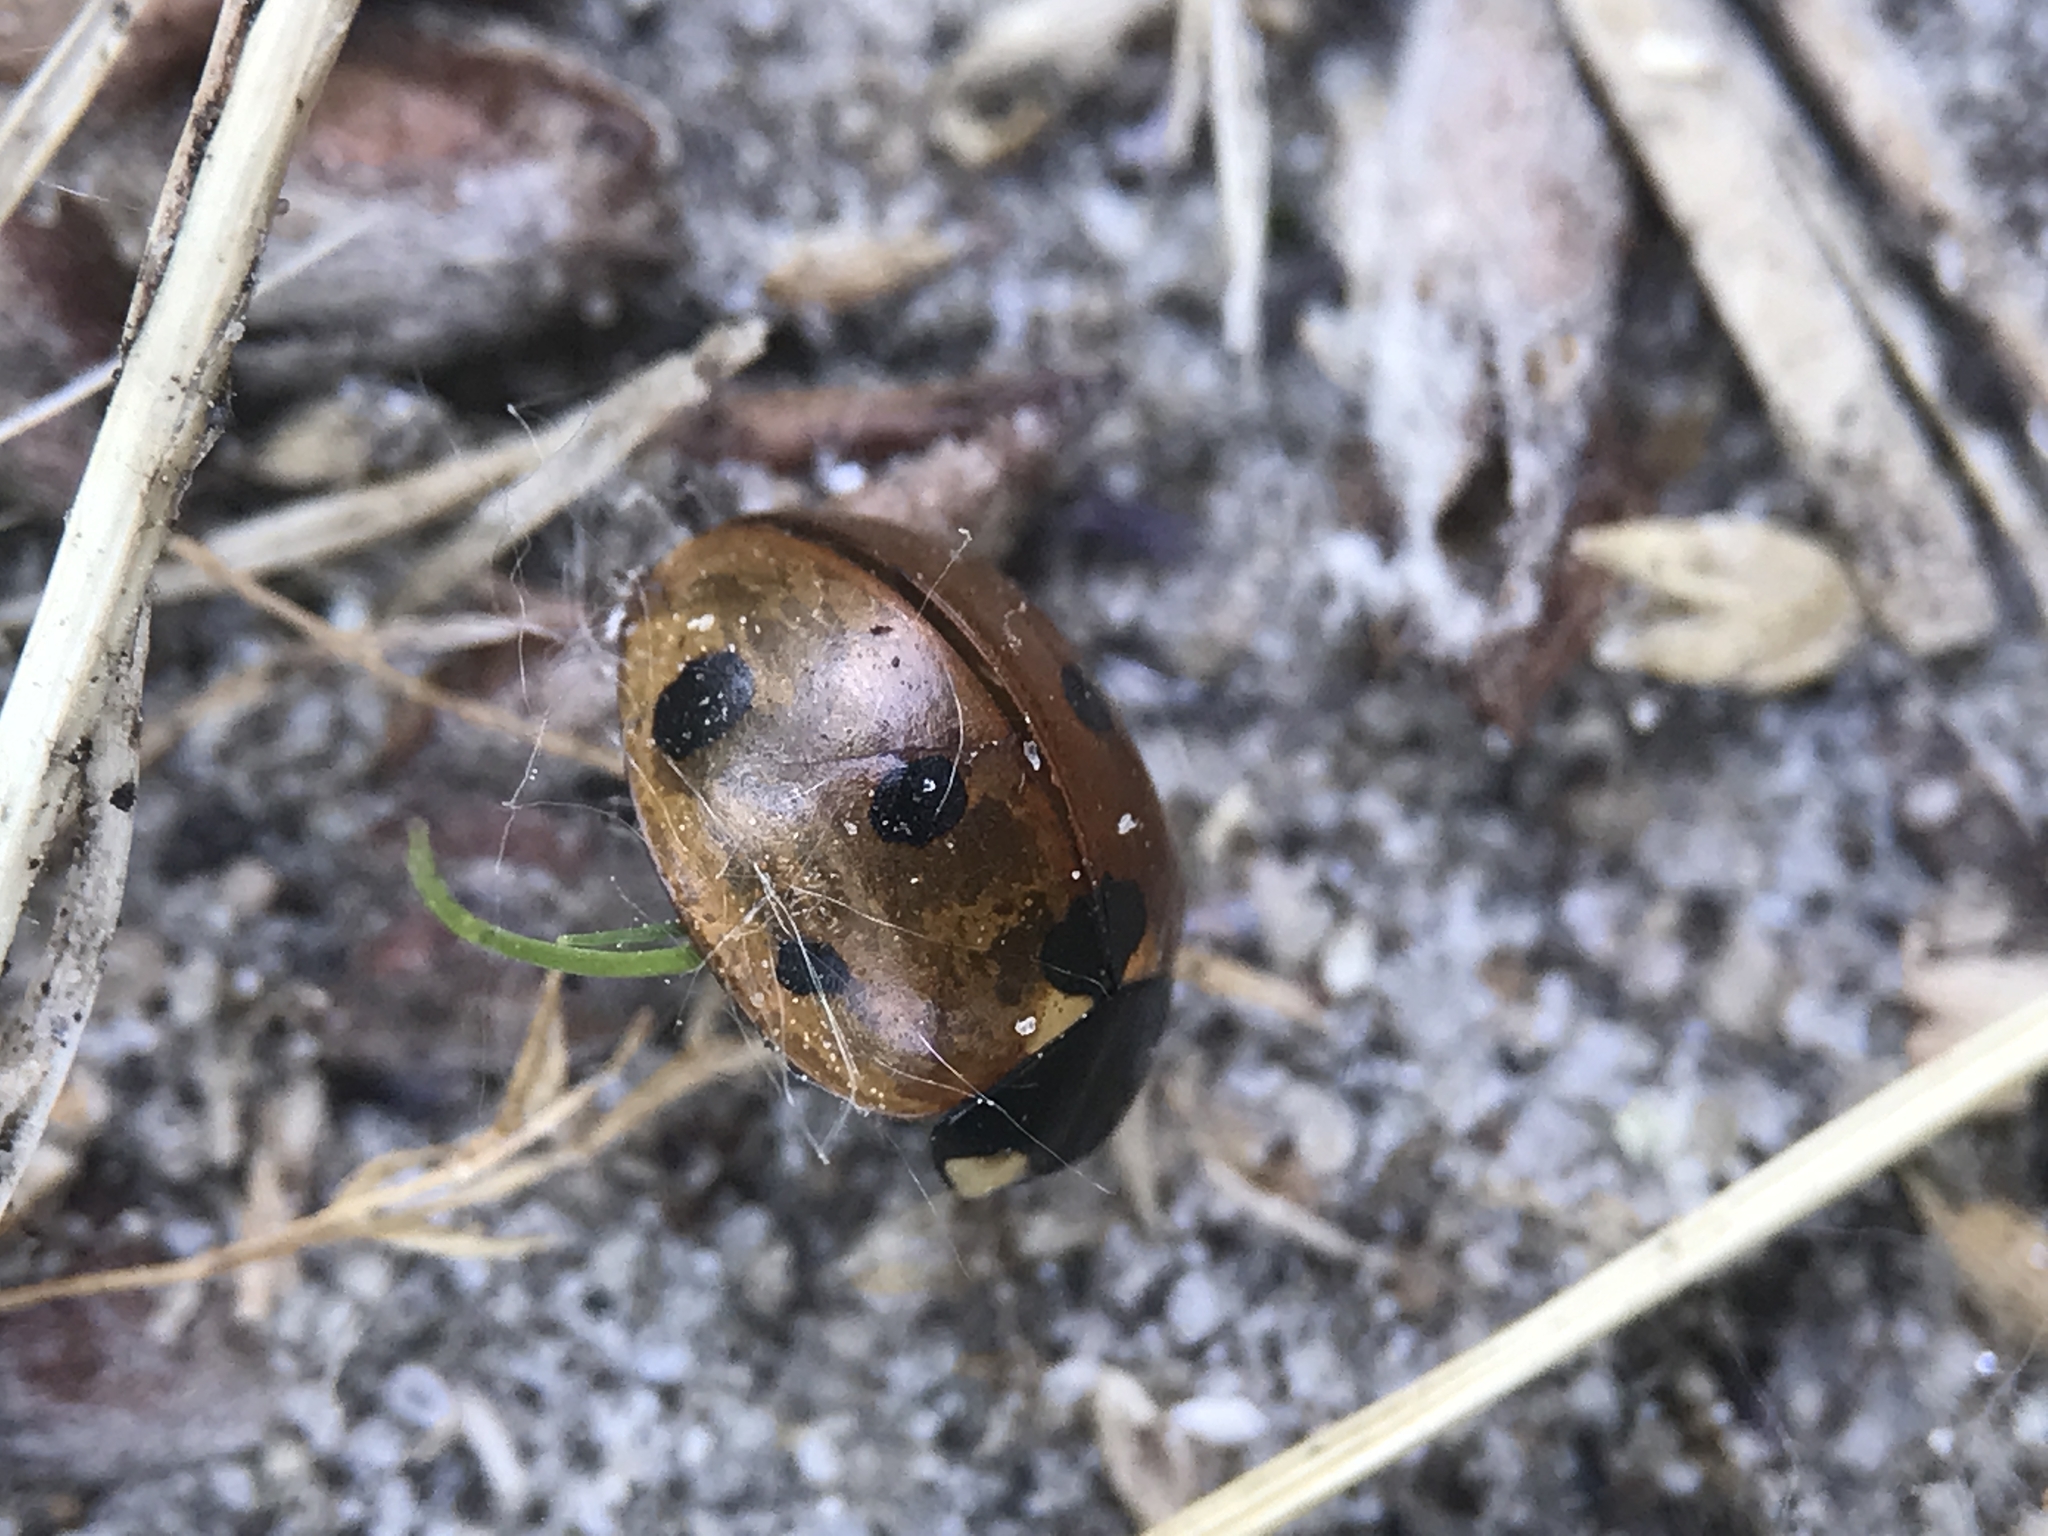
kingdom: Animalia
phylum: Arthropoda
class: Insecta
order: Coleoptera
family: Coccinellidae
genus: Coccinella
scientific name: Coccinella septempunctata
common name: Sevenspotted lady beetle
